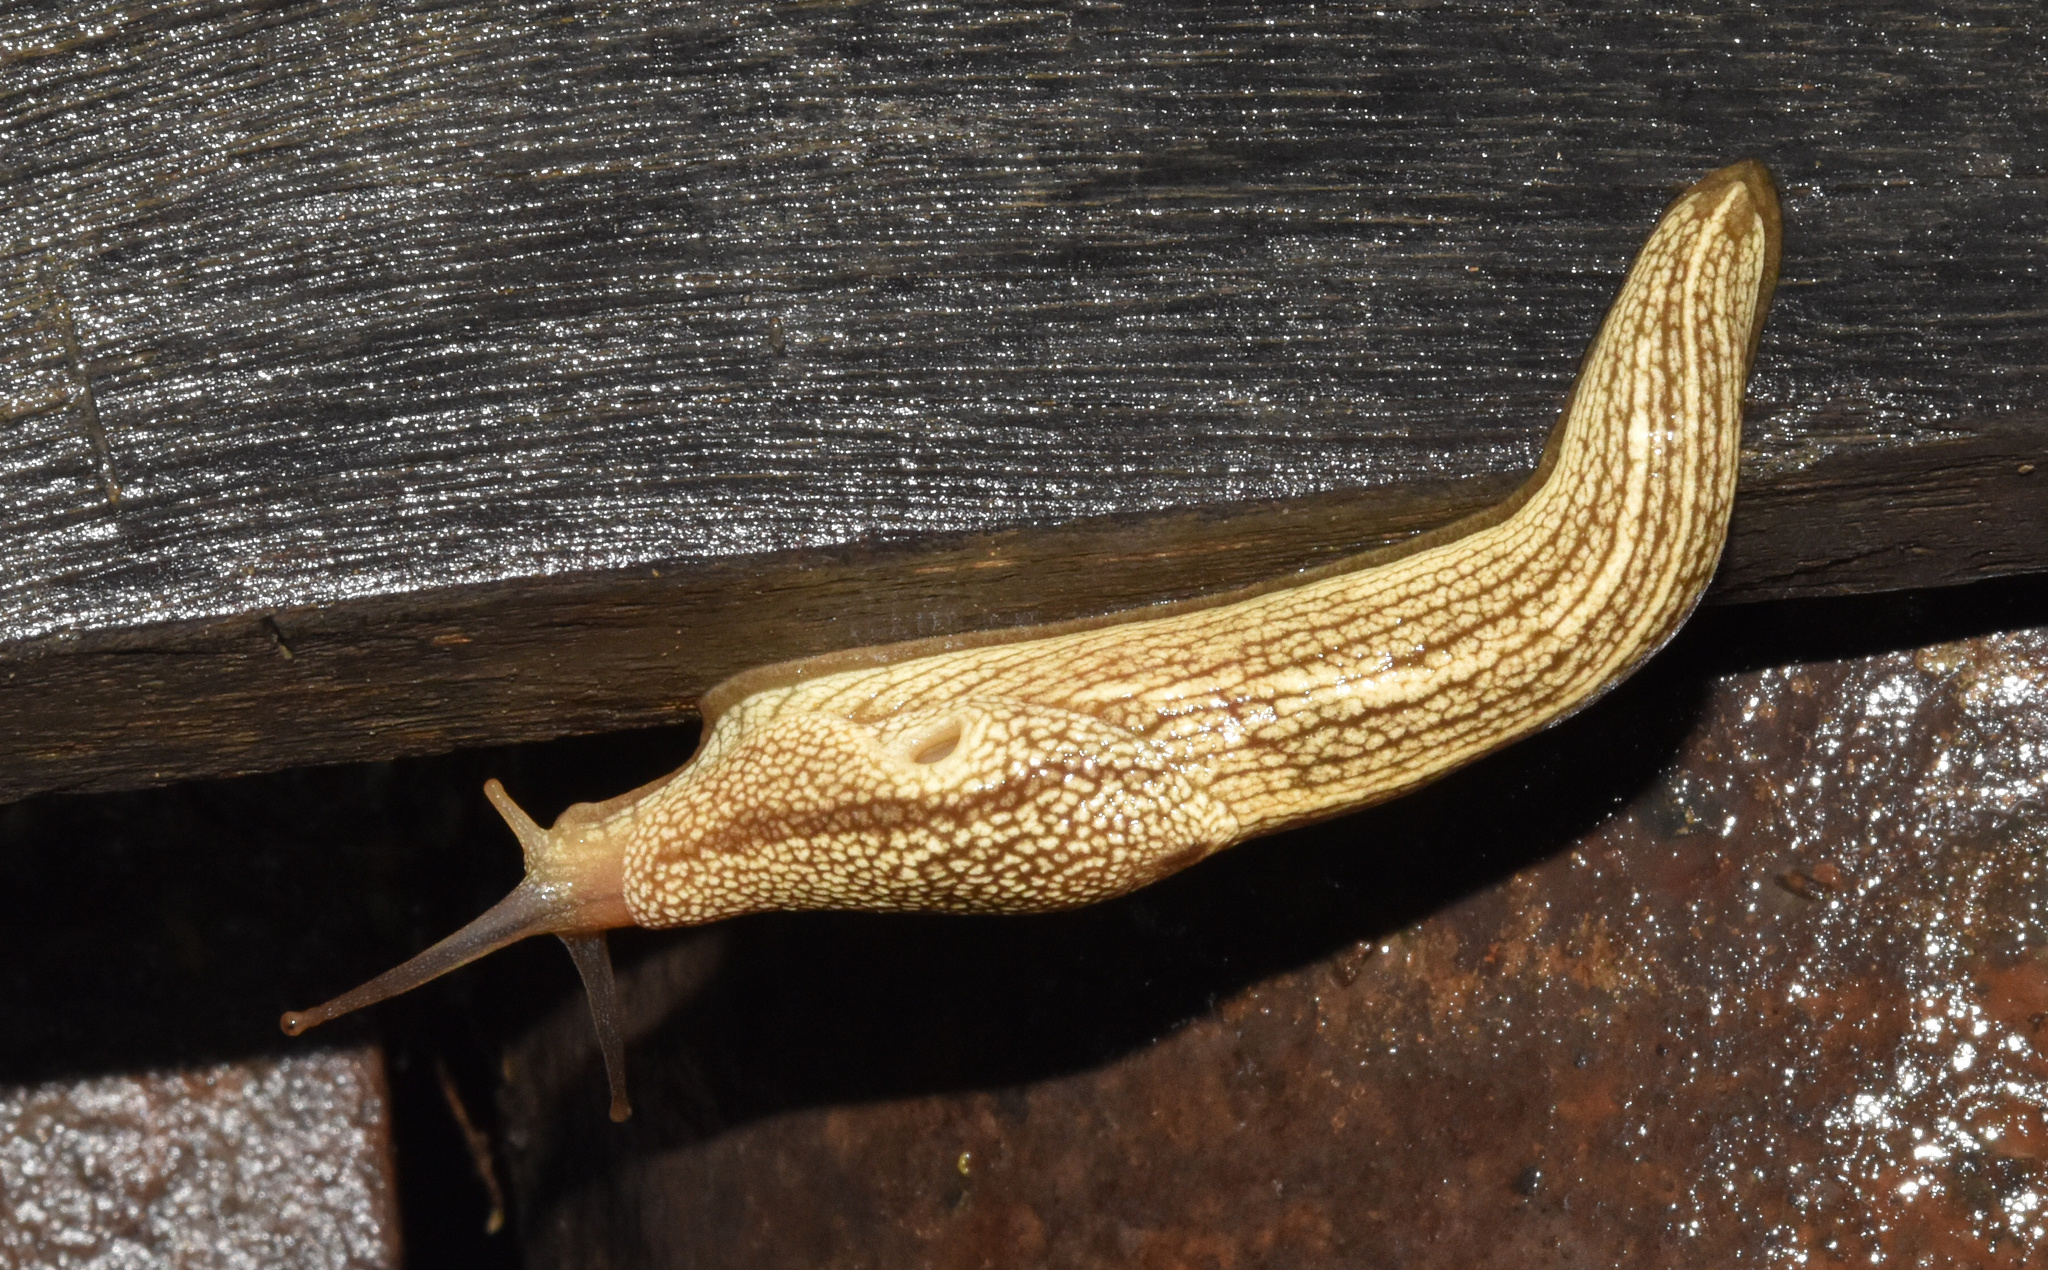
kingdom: Animalia
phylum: Mollusca
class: Gastropoda
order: Stylommatophora
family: Urocyclidae
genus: Elisolimax
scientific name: Elisolimax flavescens
